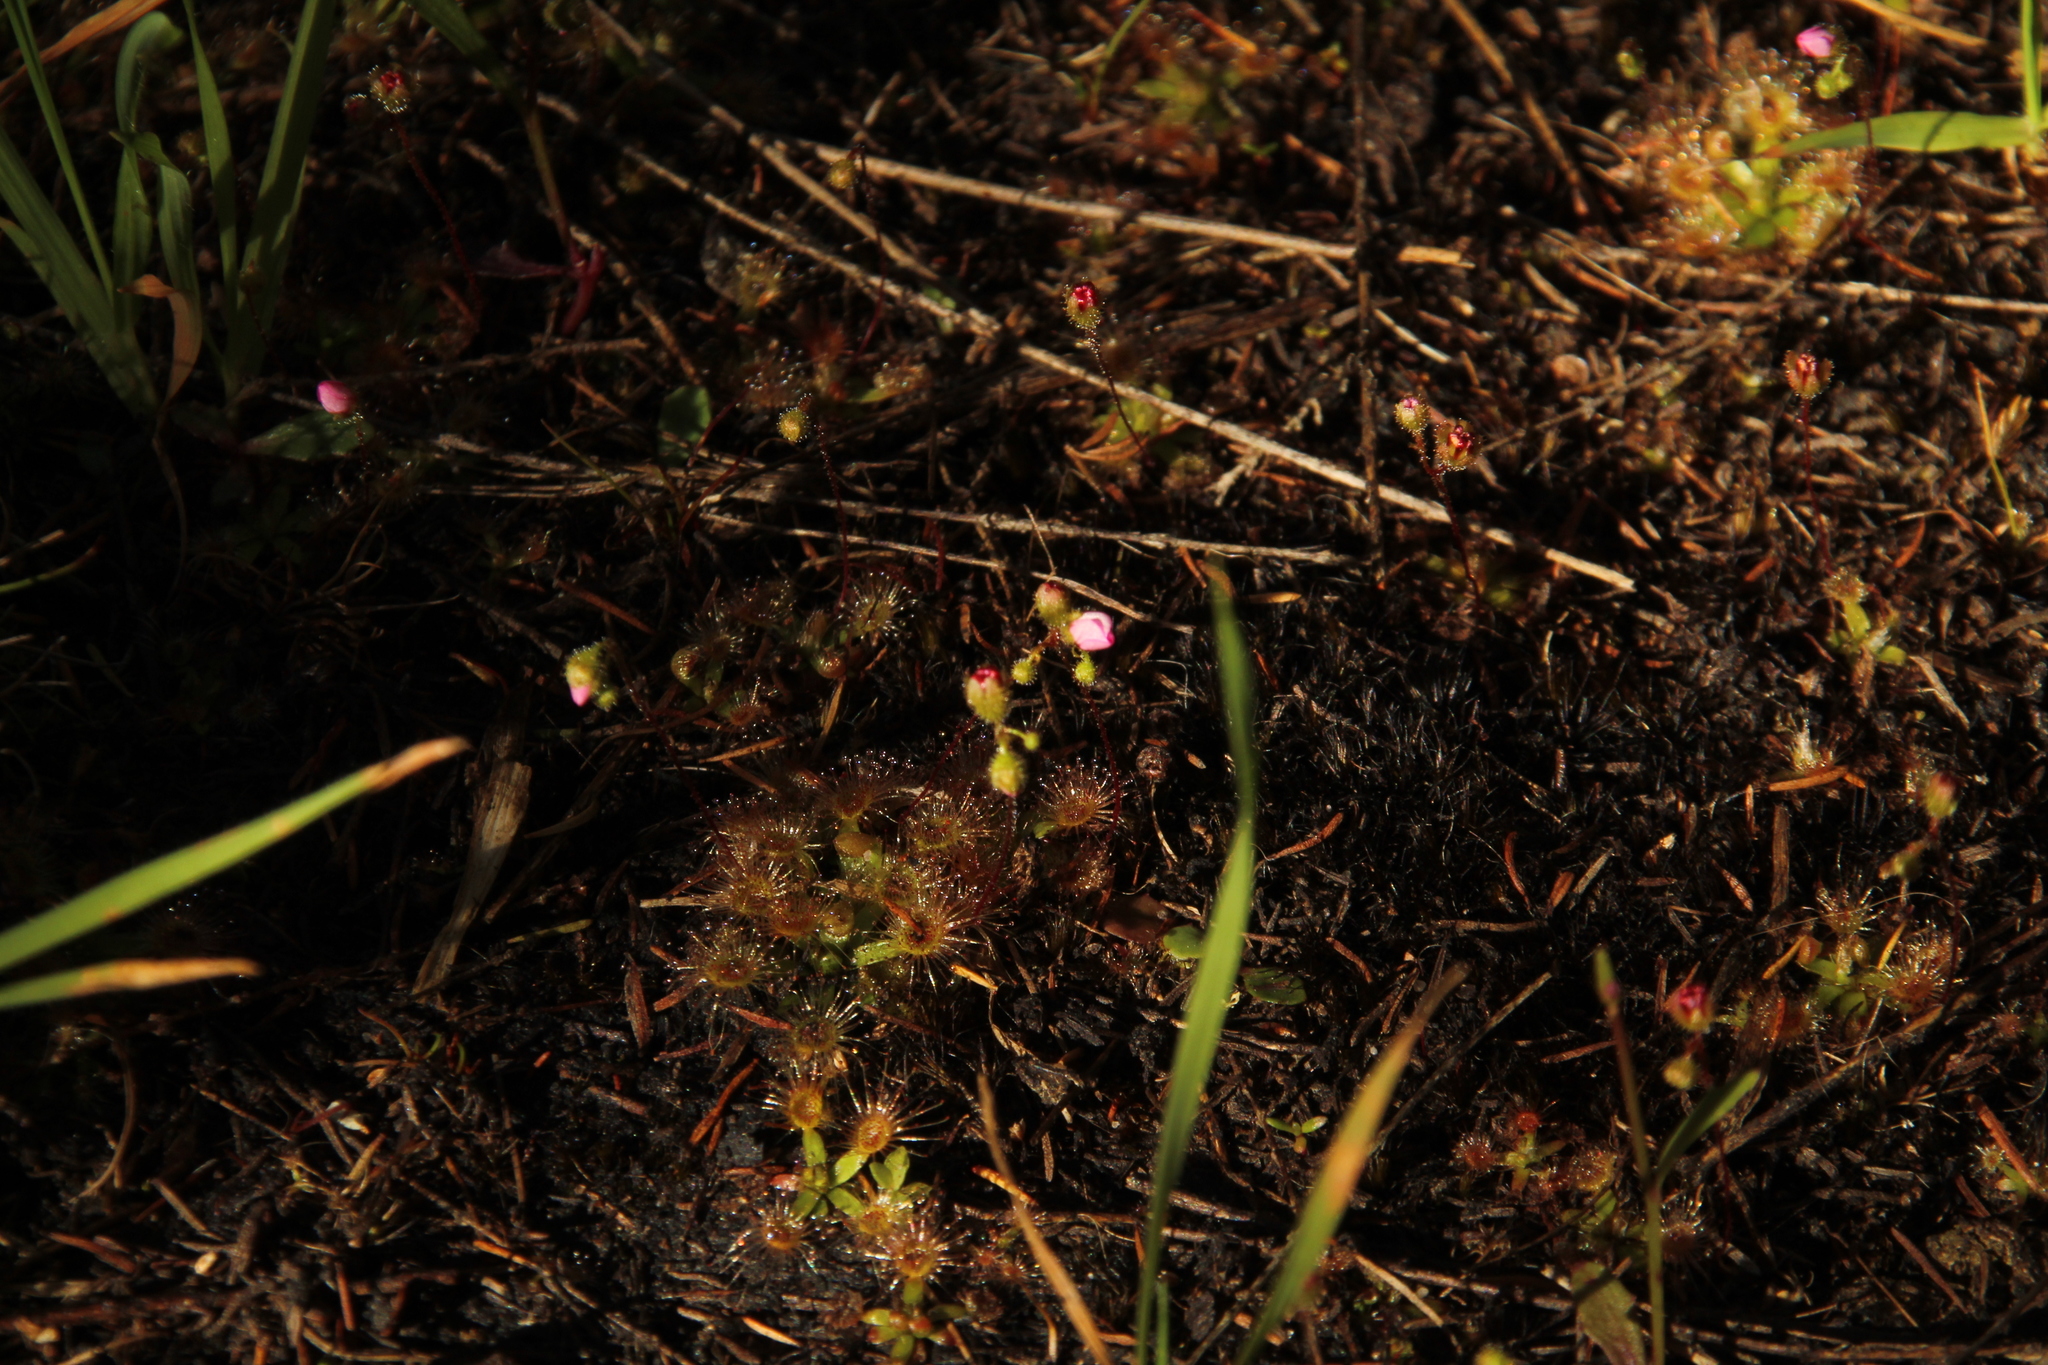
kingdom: Plantae
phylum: Tracheophyta
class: Magnoliopsida
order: Caryophyllales
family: Droseraceae
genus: Drosera
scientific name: Drosera pulchella
